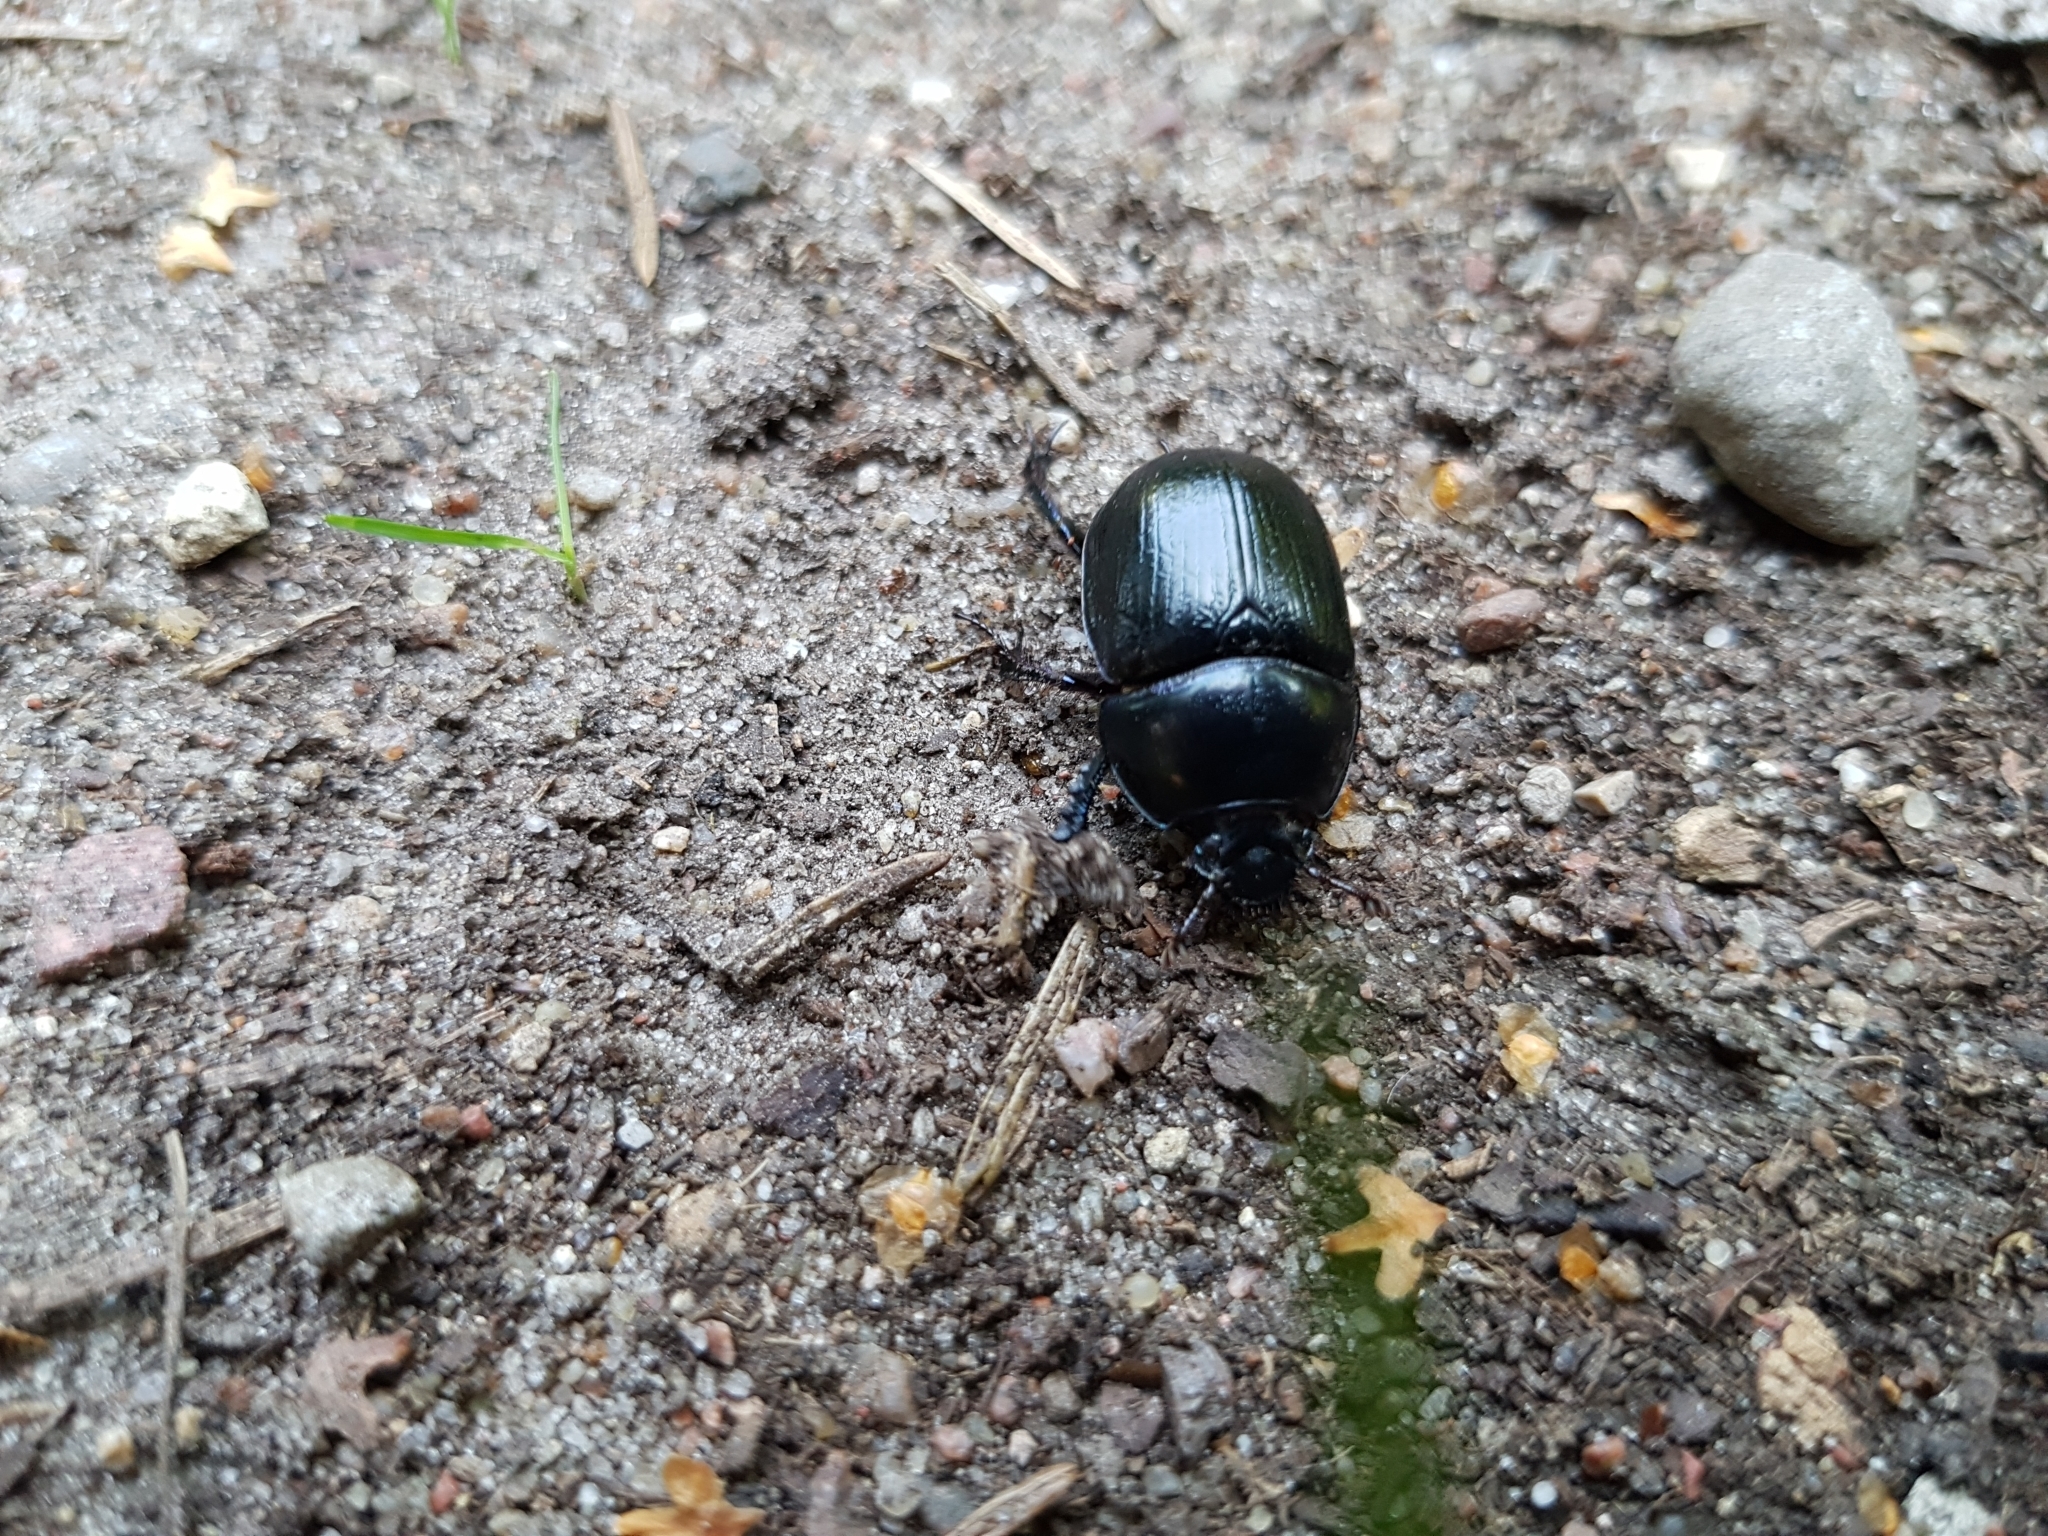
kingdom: Animalia
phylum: Arthropoda
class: Insecta
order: Coleoptera
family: Geotrupidae
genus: Anoplotrupes
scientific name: Anoplotrupes stercorosus
